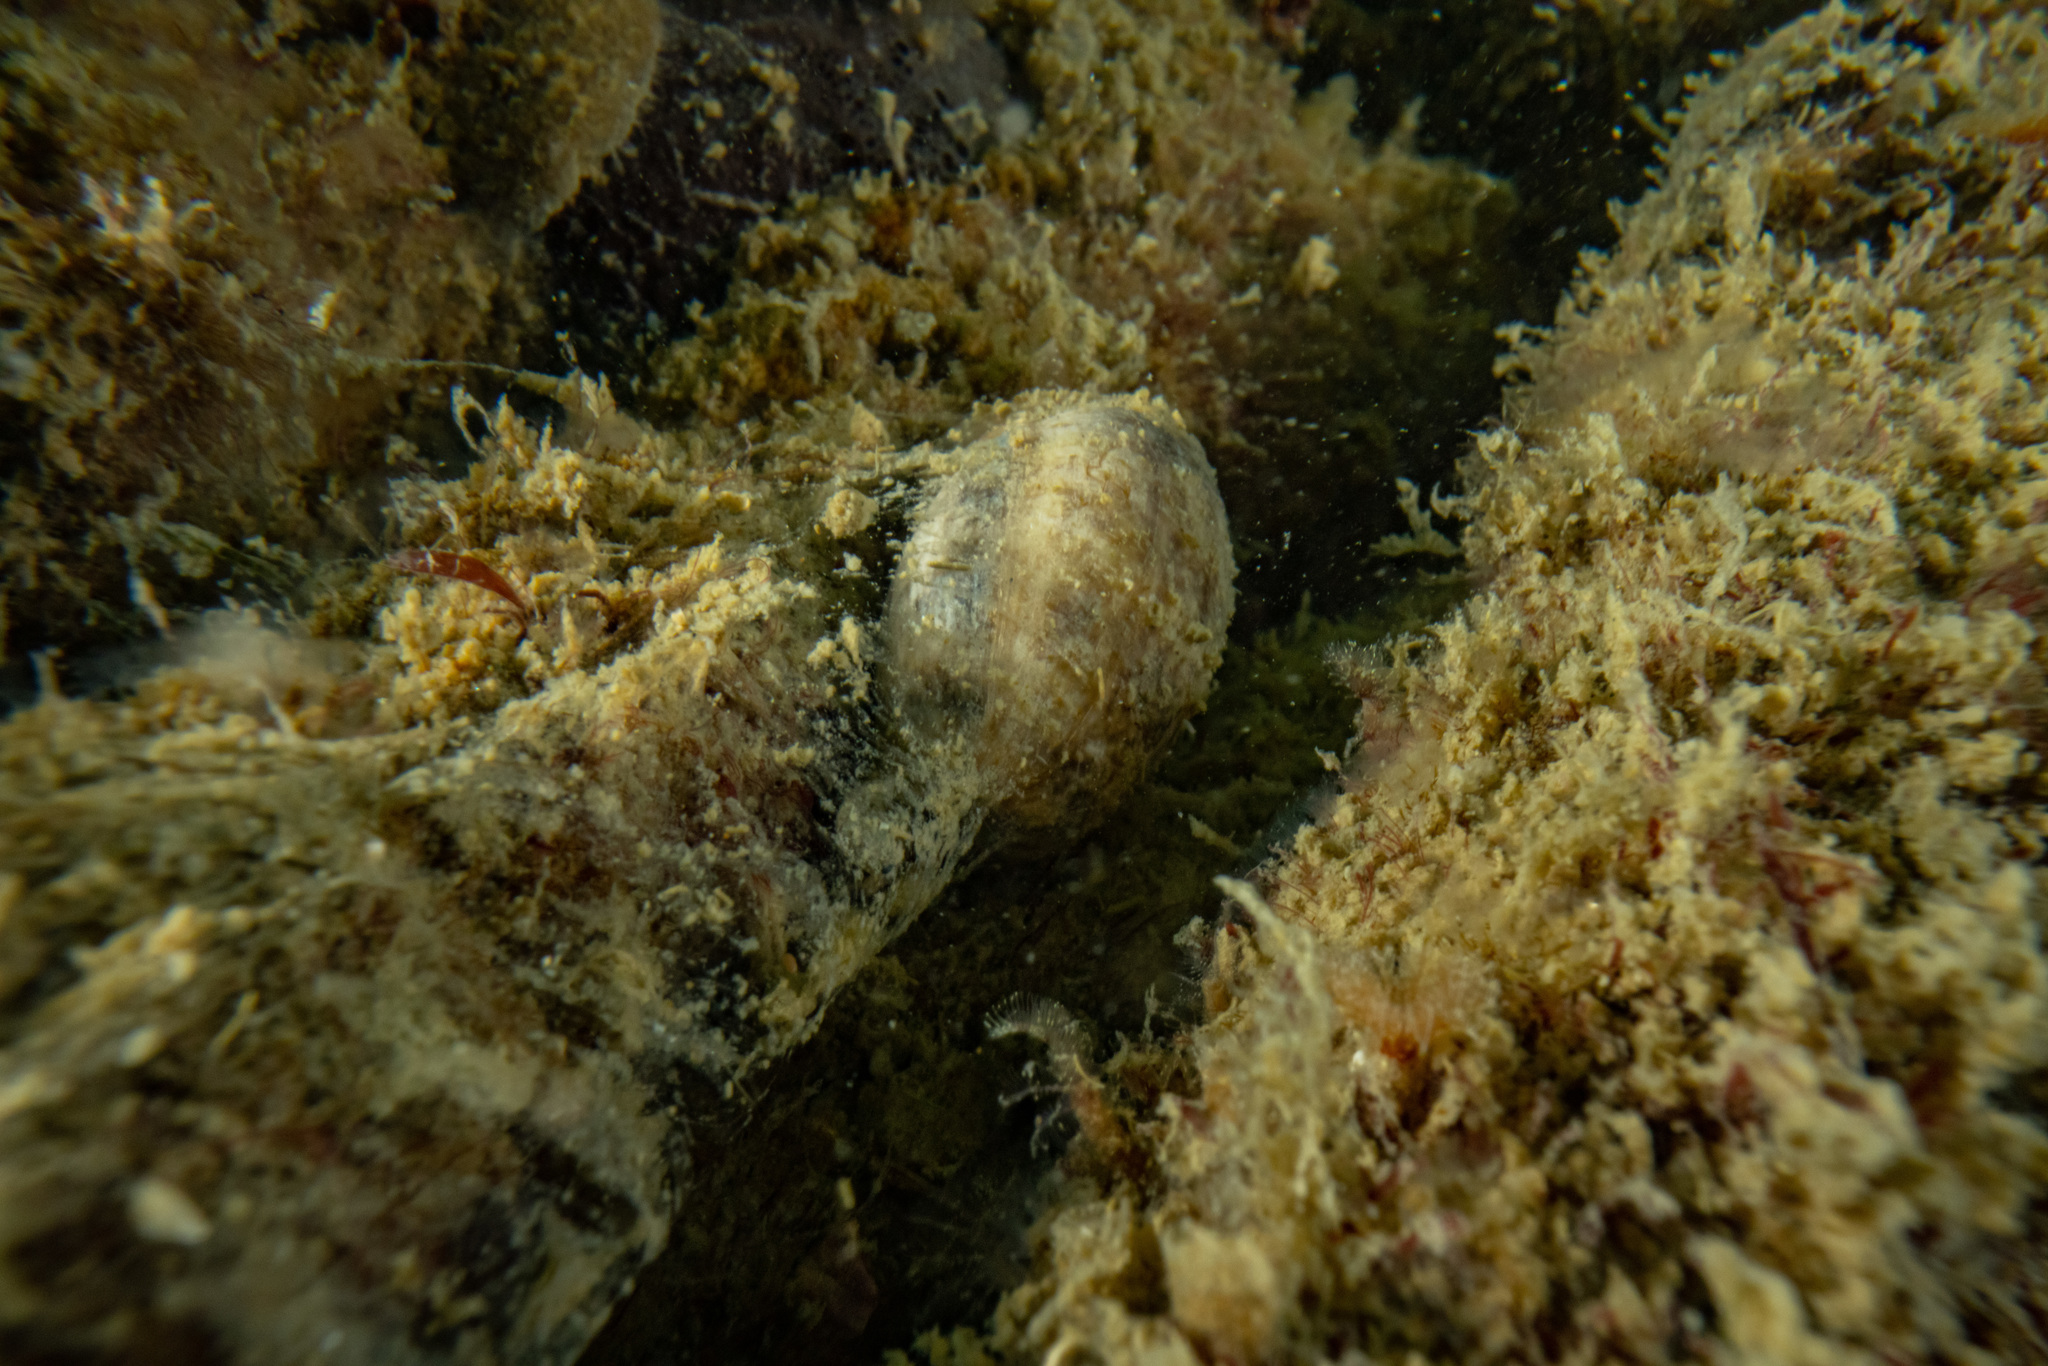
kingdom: Animalia
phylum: Mollusca
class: Gastropoda
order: Cephalaspidea
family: Bullidae
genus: Bulla
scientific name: Bulla quoyii
